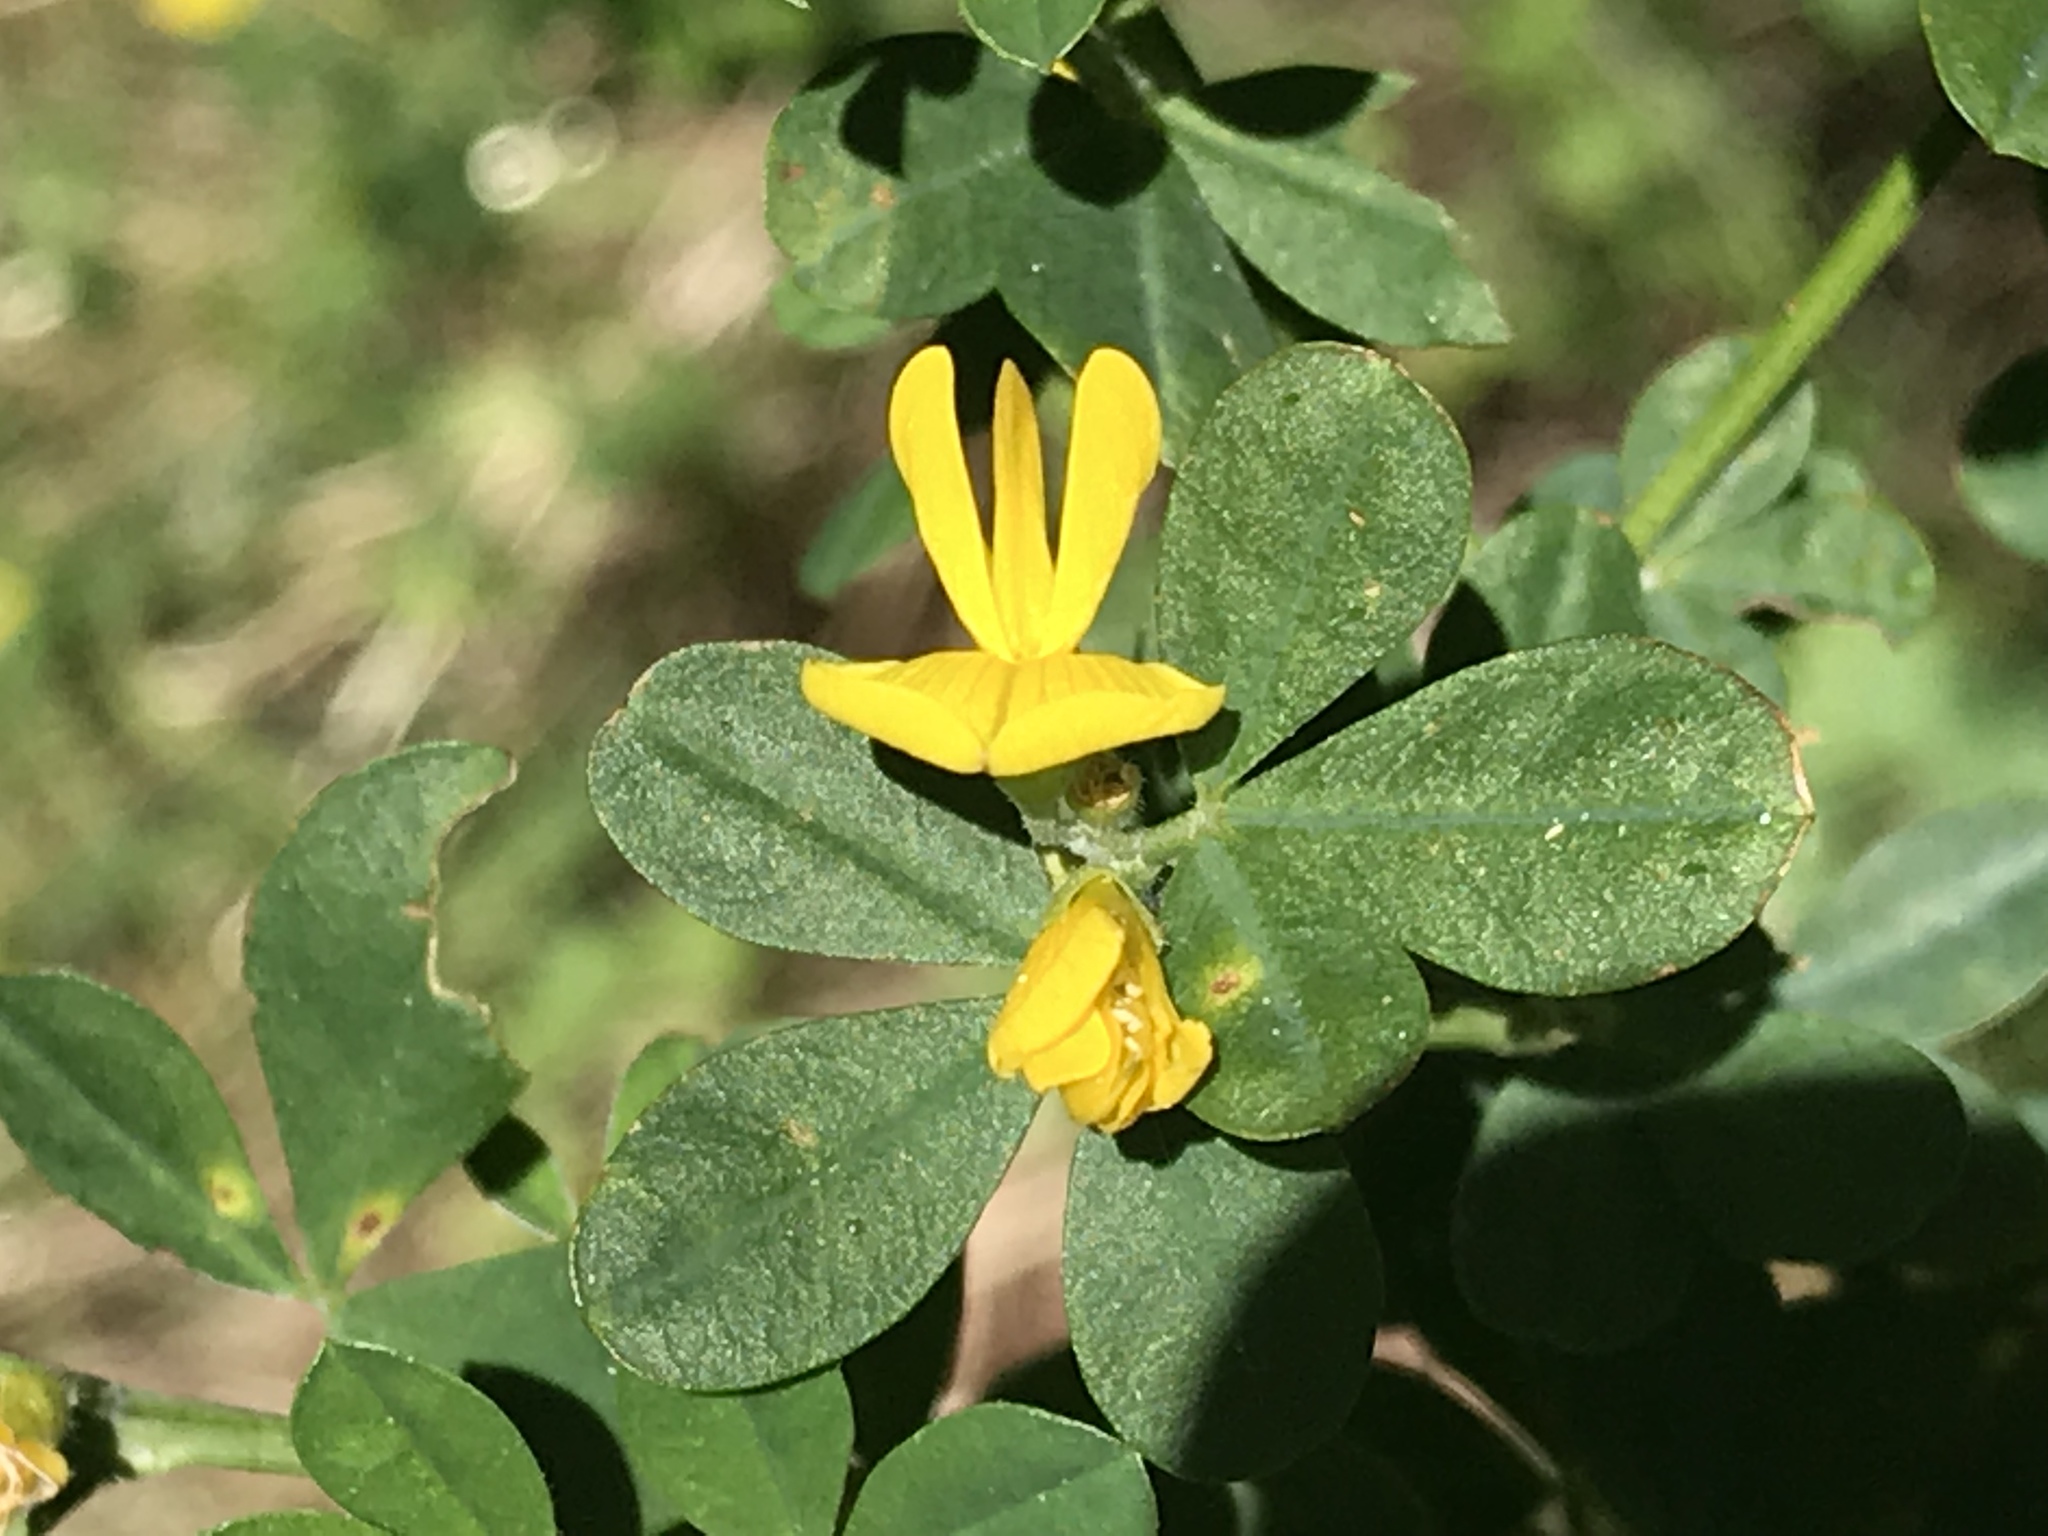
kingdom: Plantae
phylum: Tracheophyta
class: Magnoliopsida
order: Fabales
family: Fabaceae
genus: Genista
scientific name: Genista monspessulana
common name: Montpellier broom
